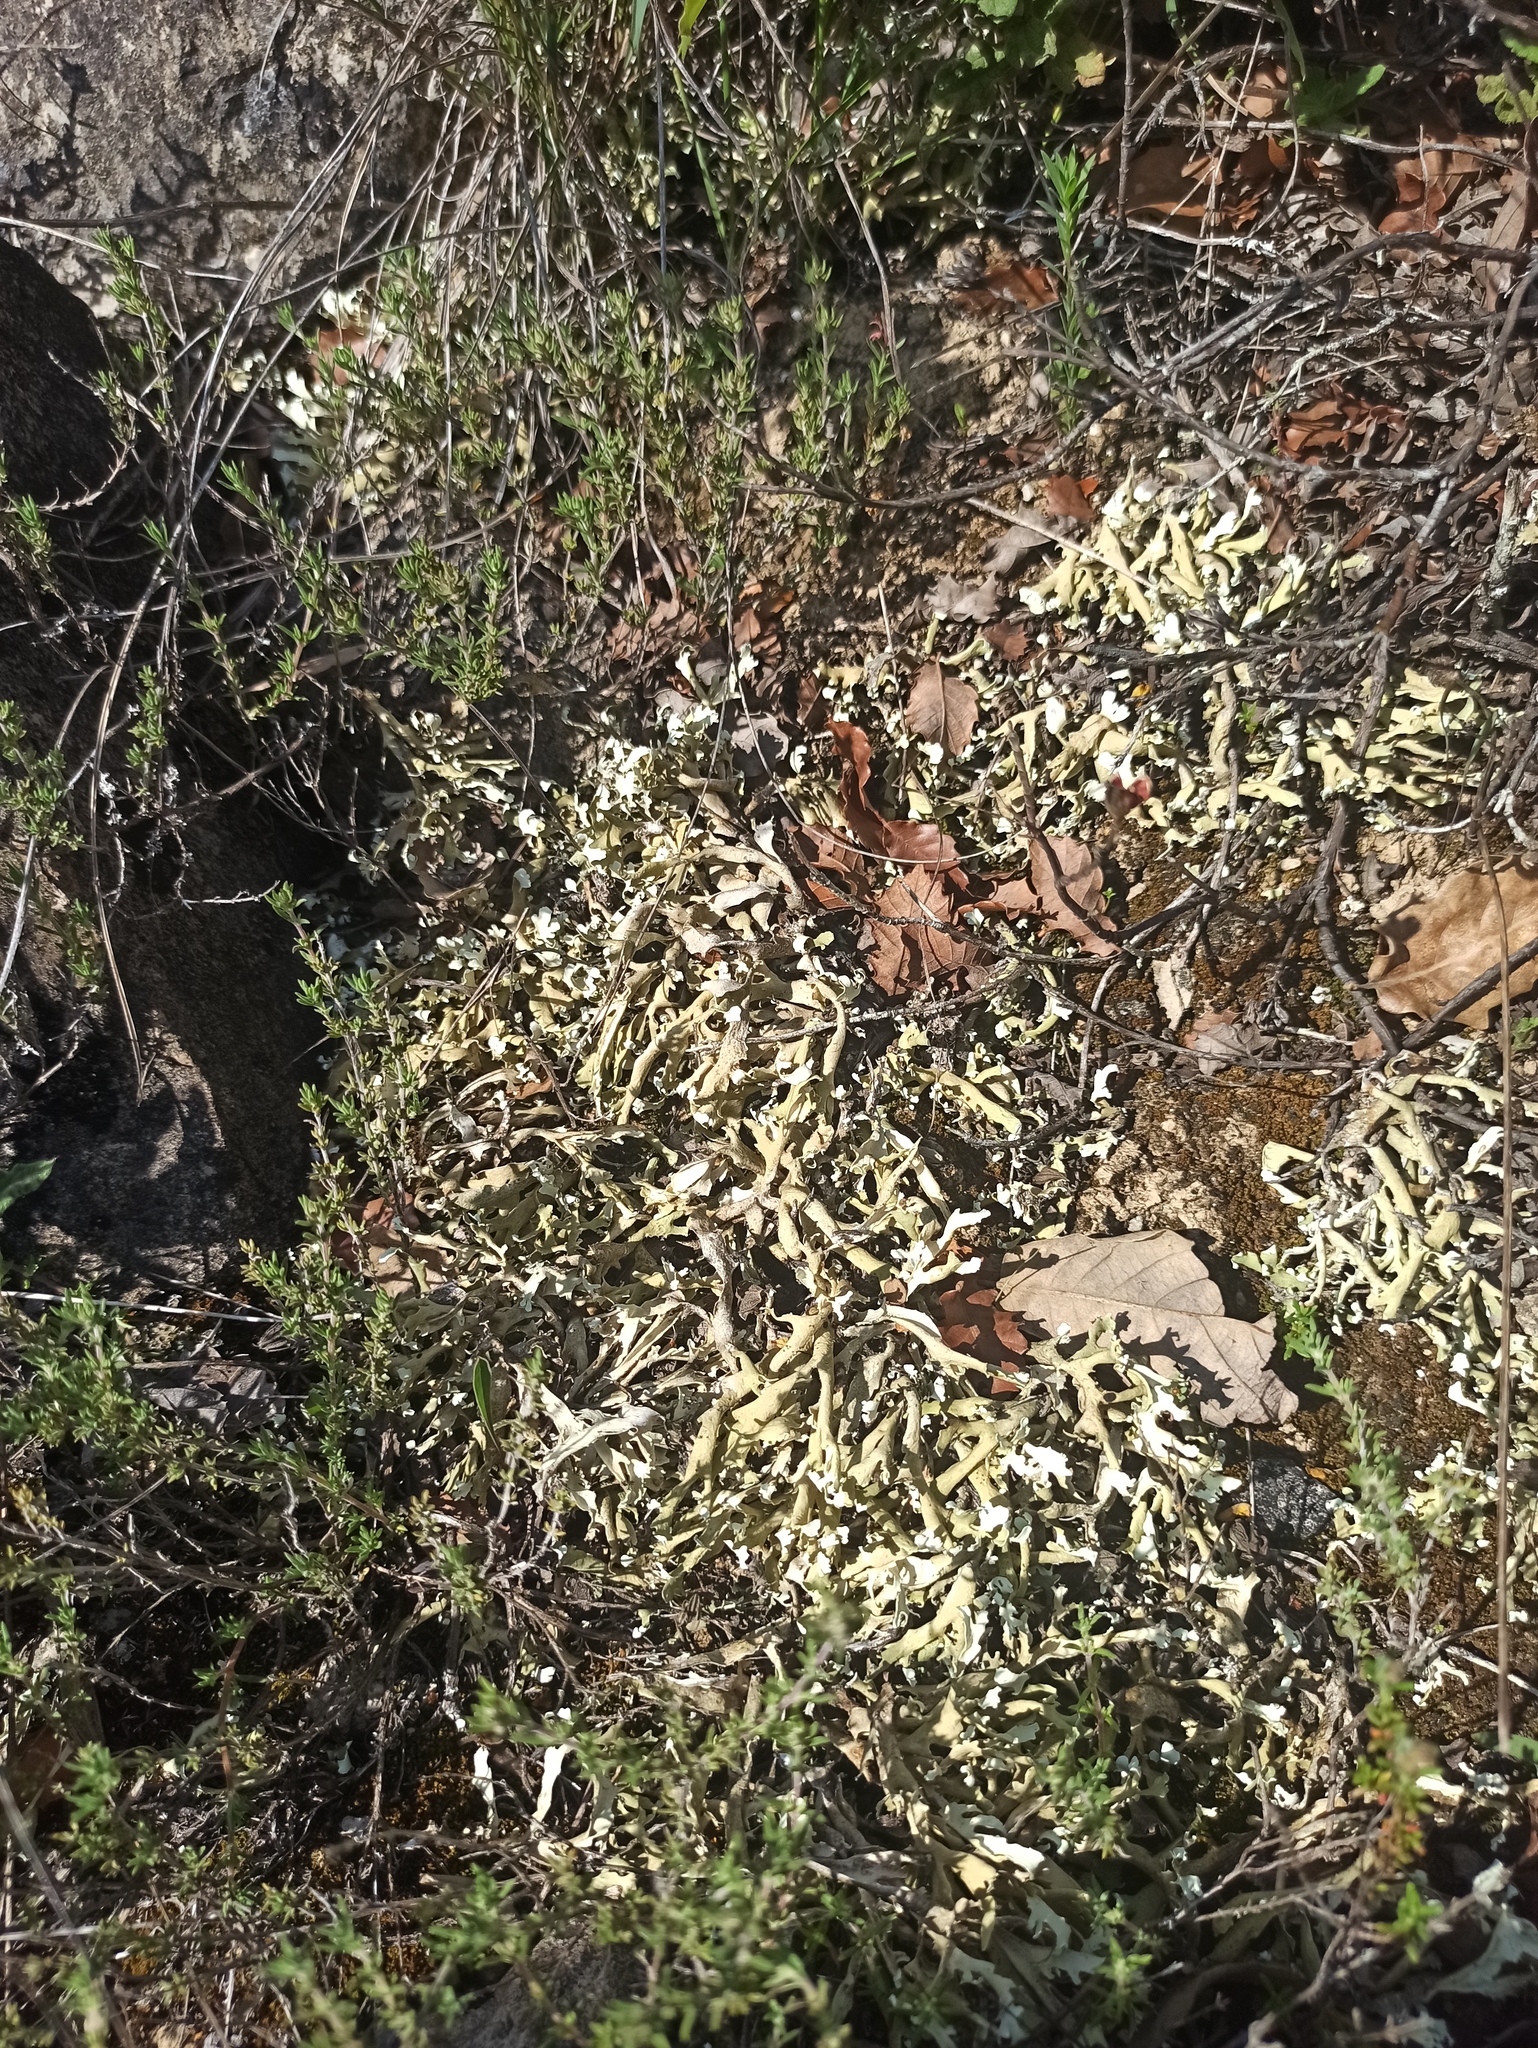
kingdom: Fungi
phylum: Ascomycota
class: Lecanoromycetes
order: Lecanorales
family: Cladoniaceae
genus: Cladonia
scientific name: Cladonia foliacea
